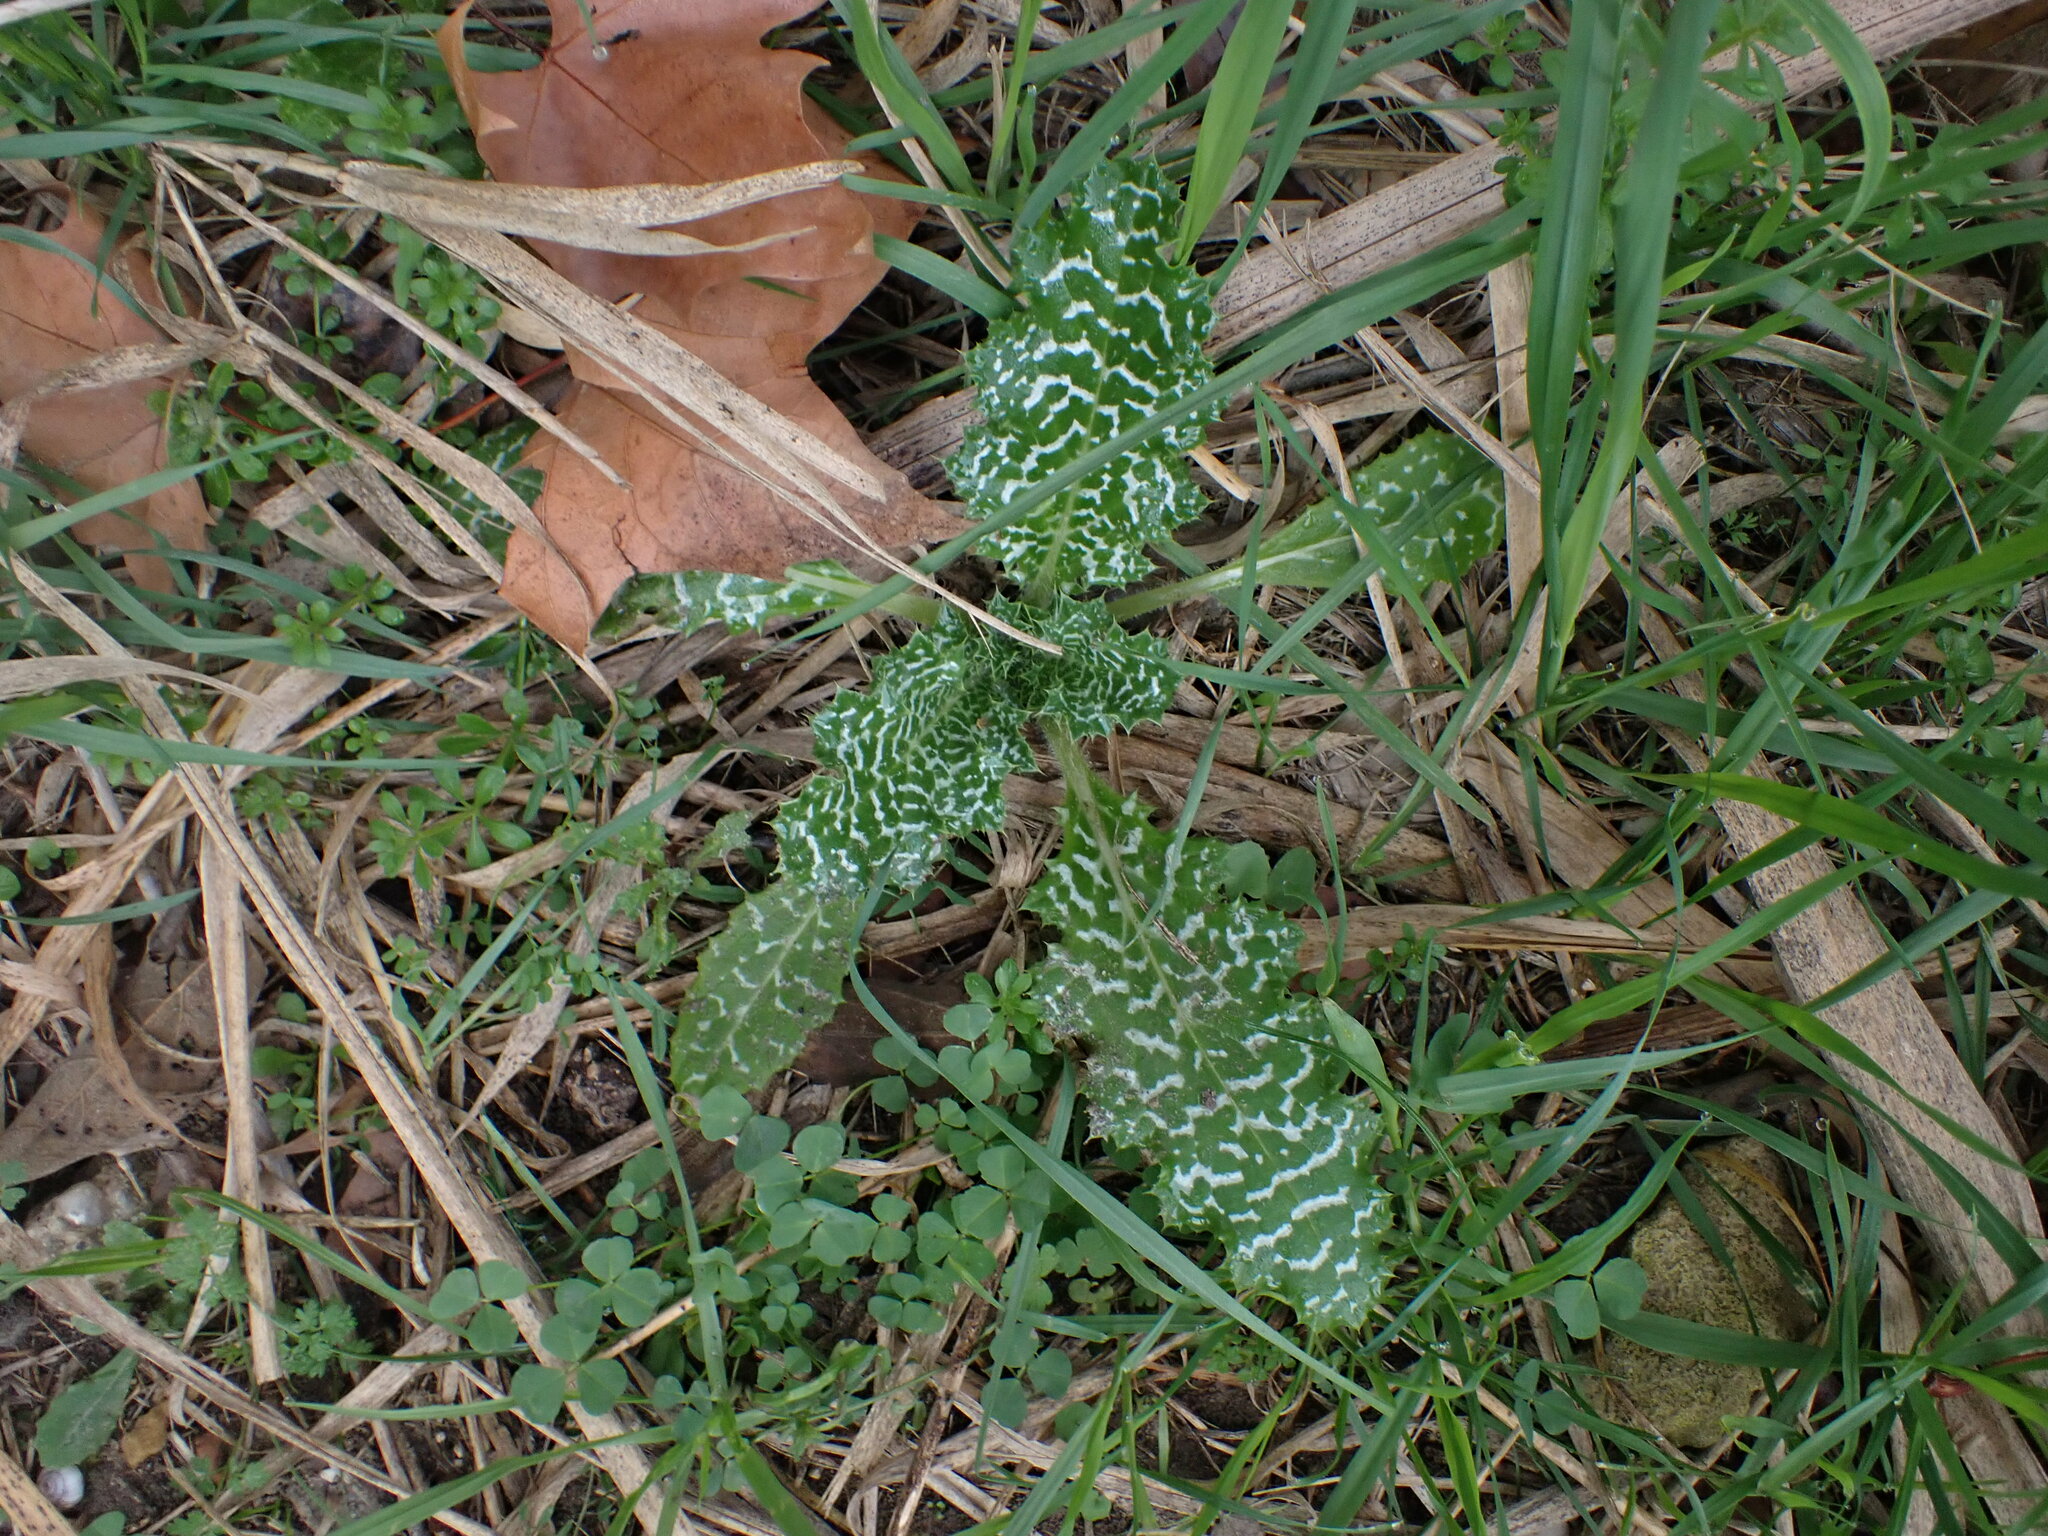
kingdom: Plantae
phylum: Tracheophyta
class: Magnoliopsida
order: Asterales
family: Asteraceae
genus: Silybum
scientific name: Silybum marianum
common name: Milk thistle
